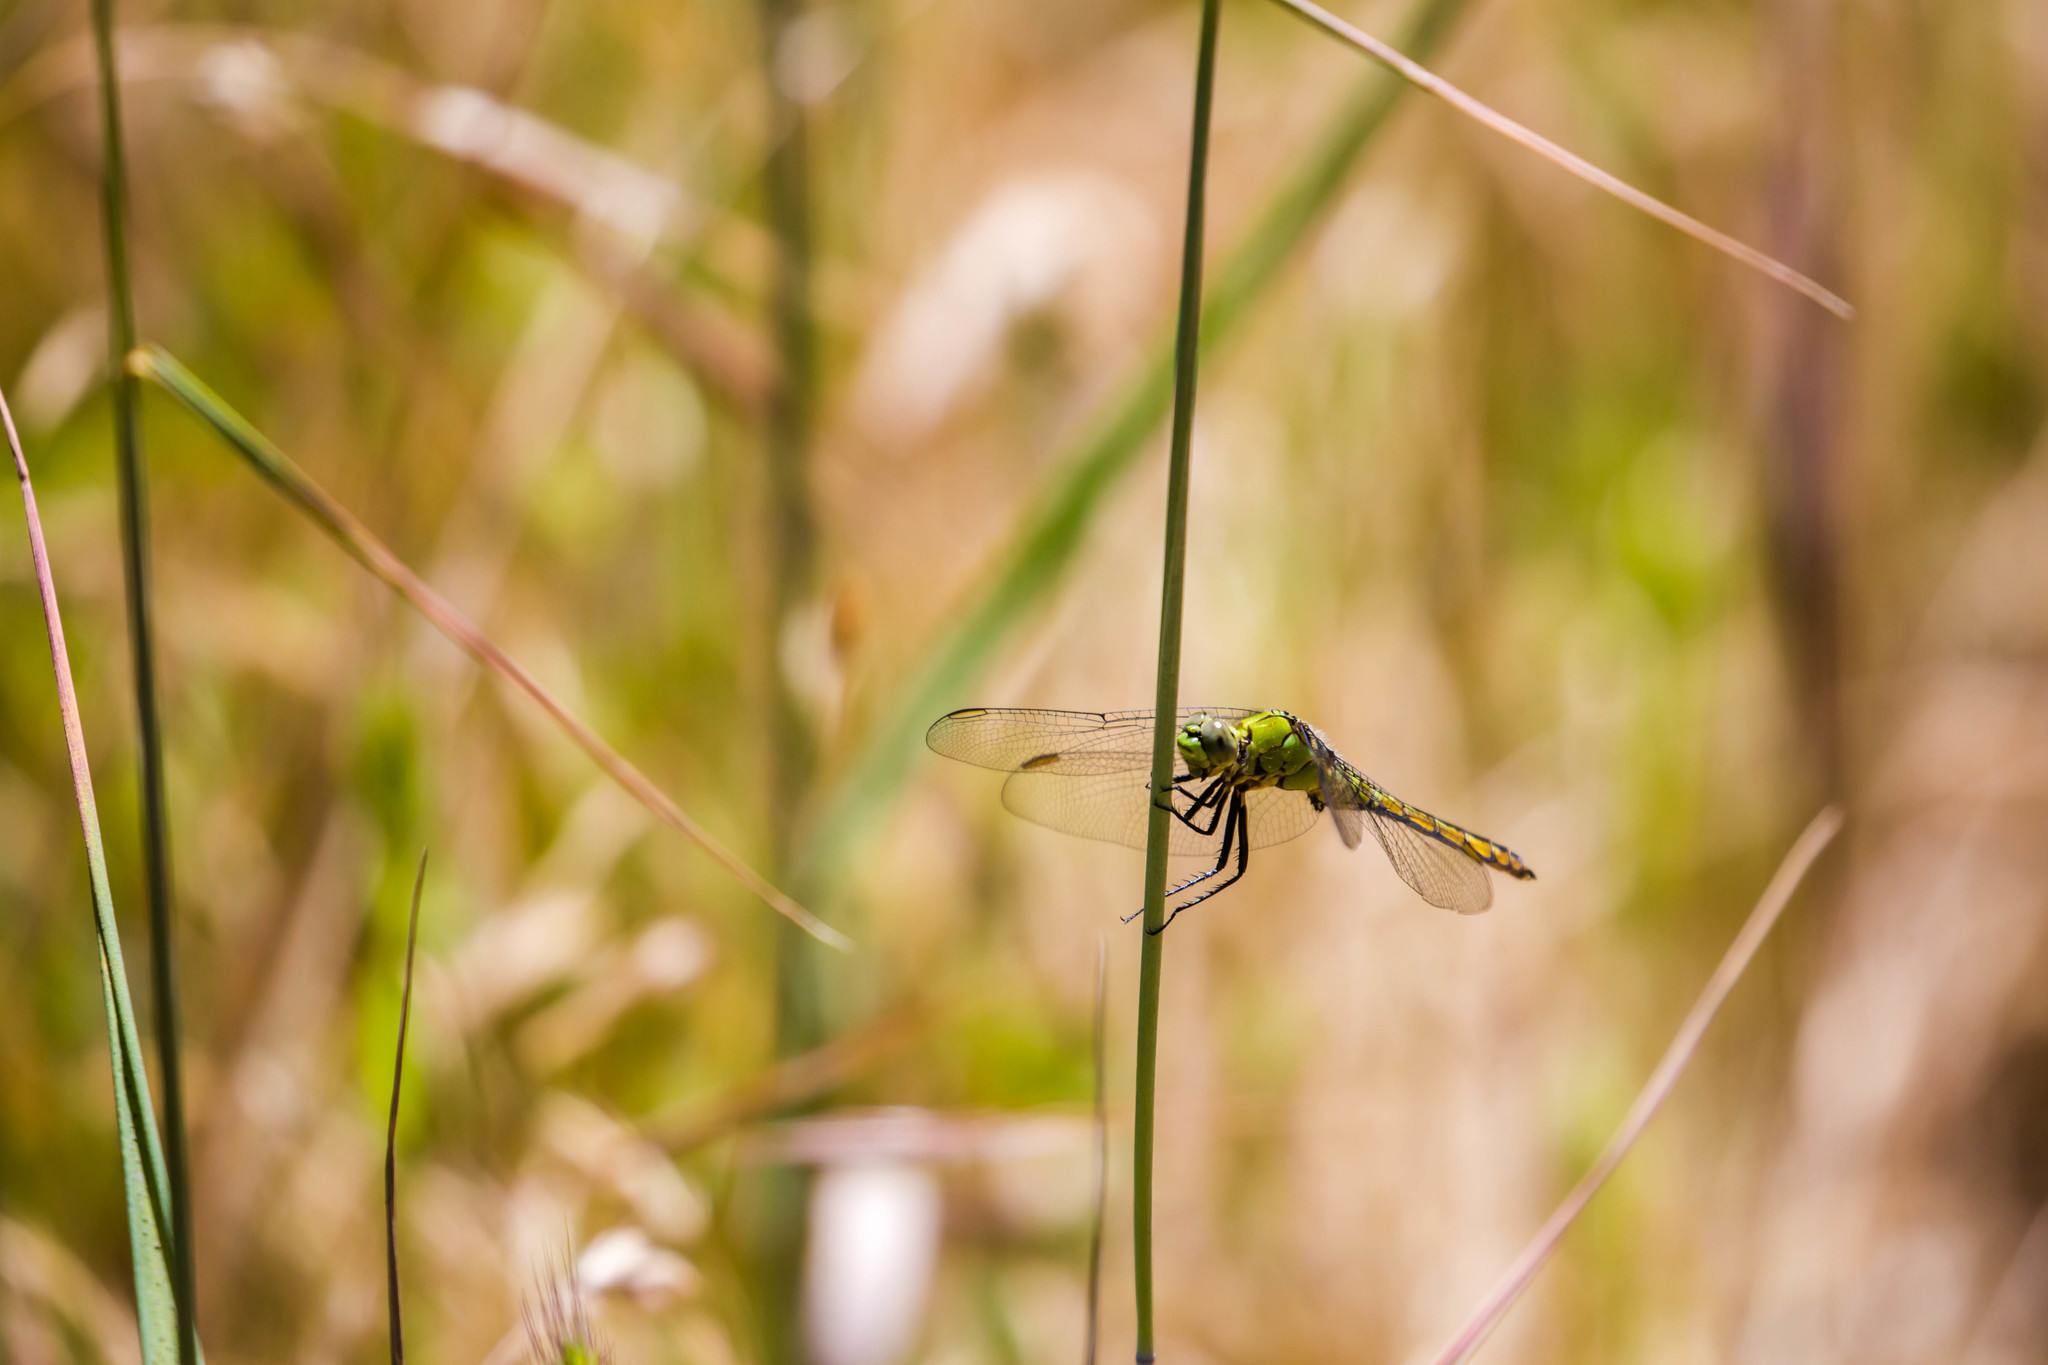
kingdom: Animalia
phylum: Arthropoda
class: Insecta
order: Odonata
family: Libellulidae
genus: Erythemis
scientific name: Erythemis collocata
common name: Western pondhawk
